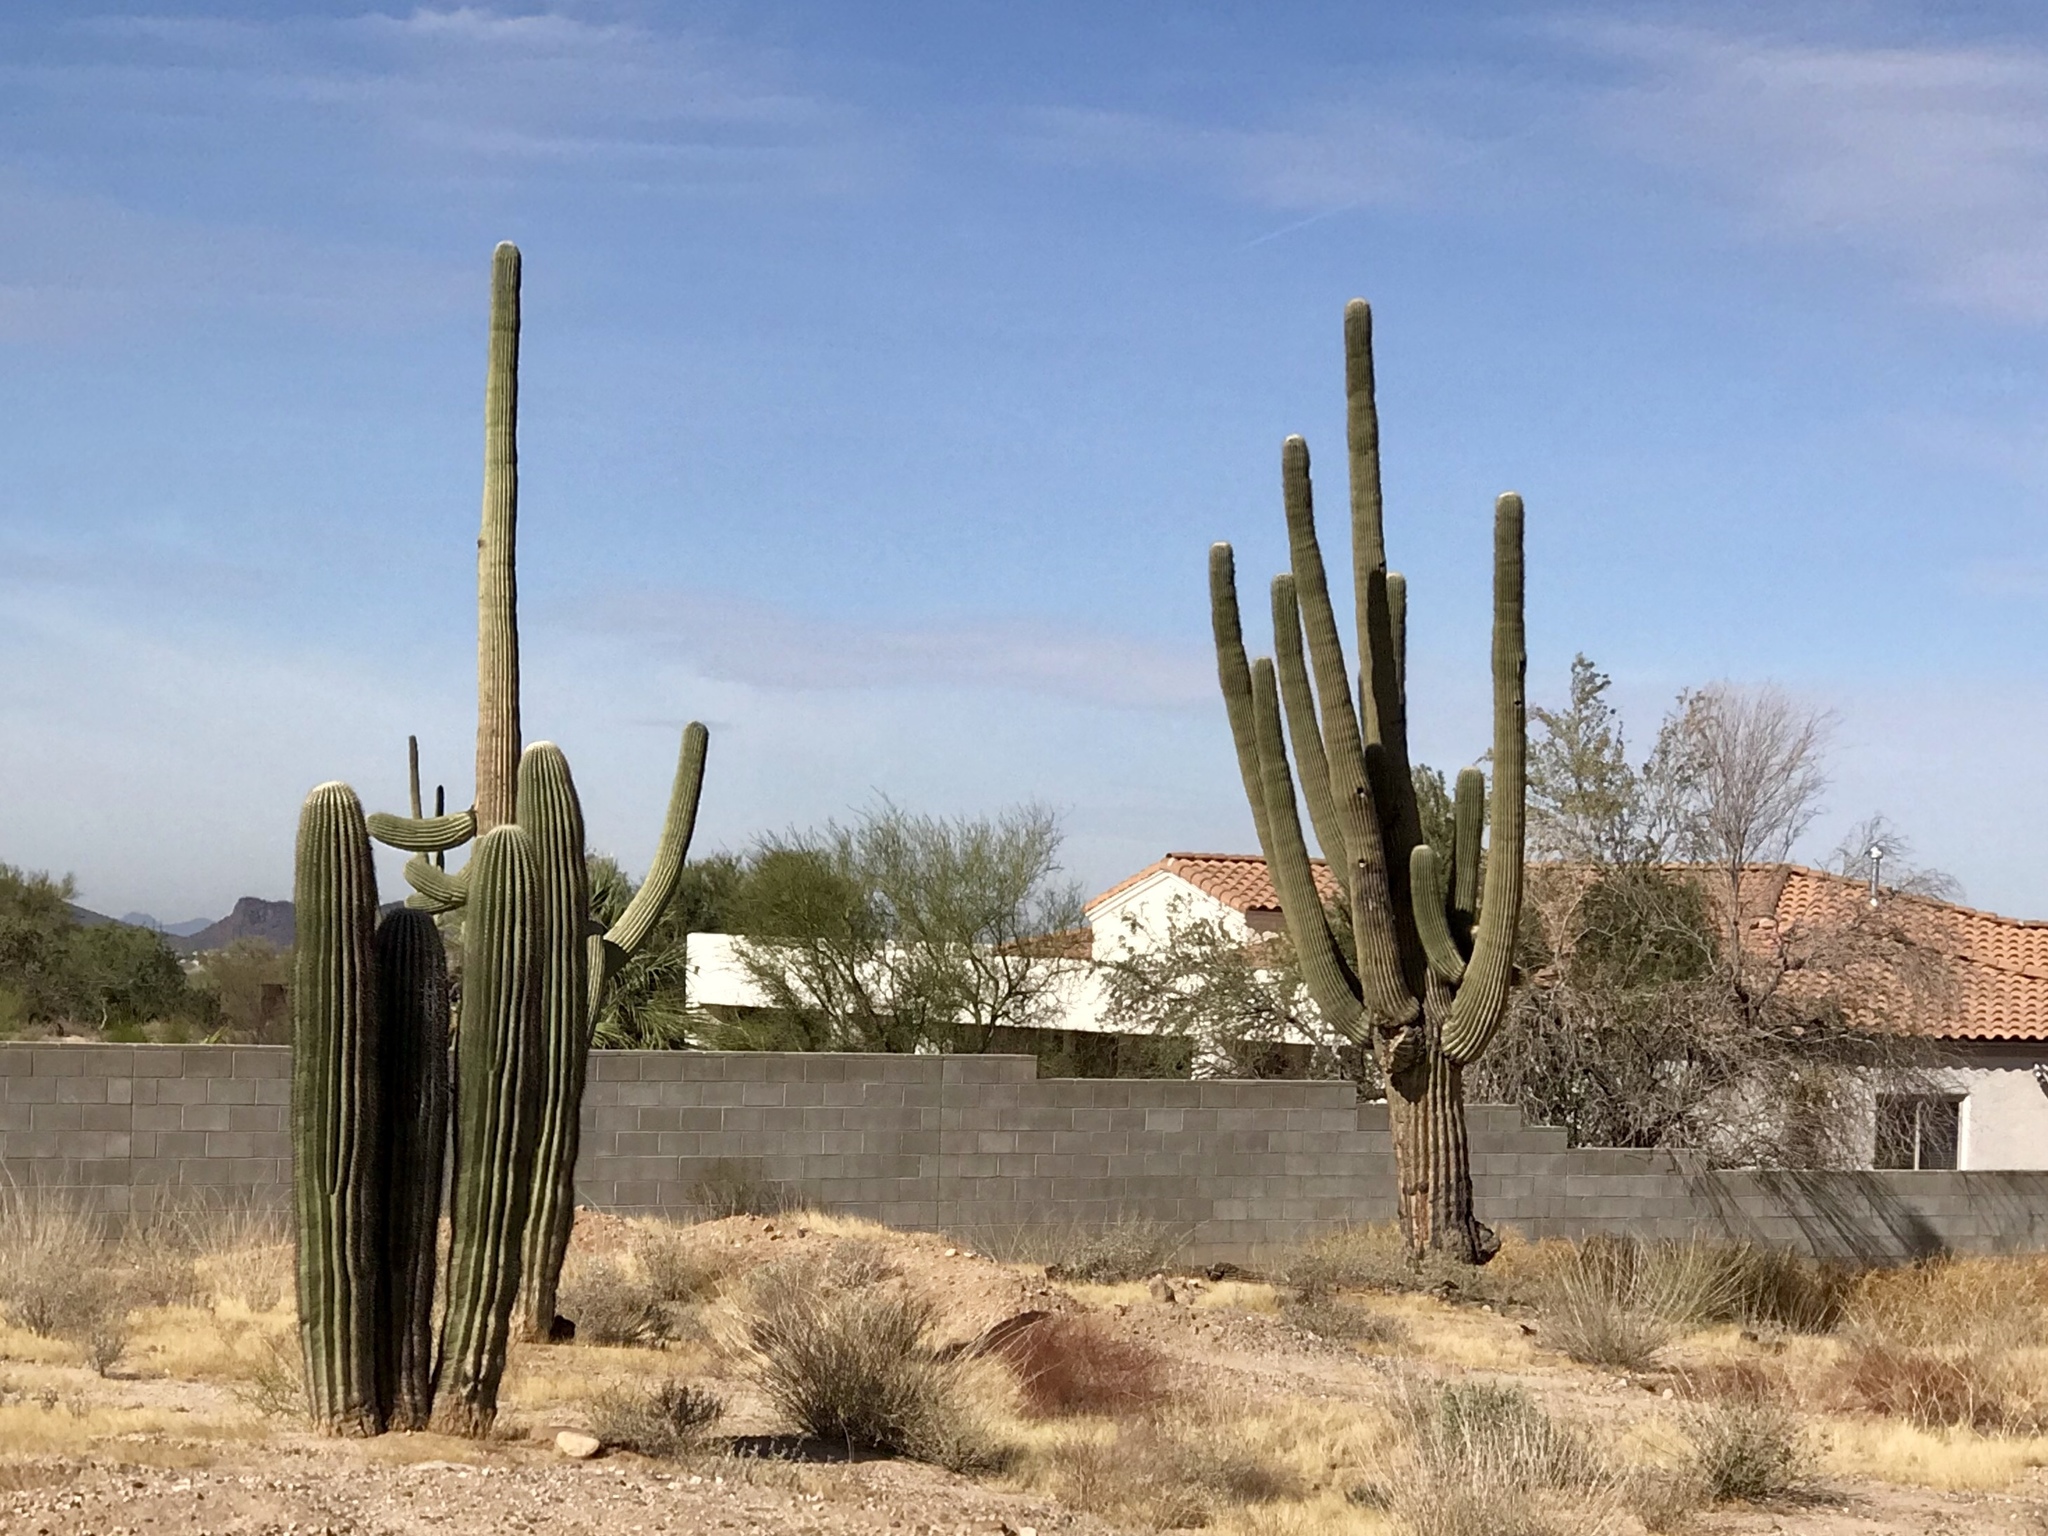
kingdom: Plantae
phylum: Tracheophyta
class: Magnoliopsida
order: Caryophyllales
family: Cactaceae
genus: Carnegiea
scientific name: Carnegiea gigantea
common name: Saguaro
